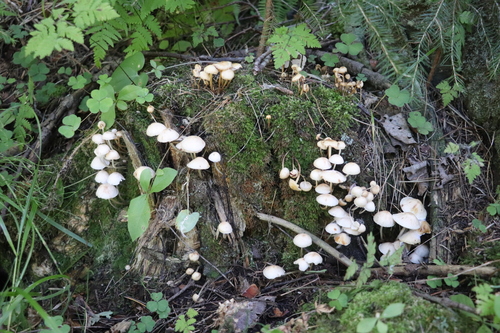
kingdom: Fungi
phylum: Basidiomycota
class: Agaricomycetes
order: Agaricales
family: Marasmiaceae
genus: Marasmius
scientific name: Marasmius wynneae
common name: Pearly parachute
